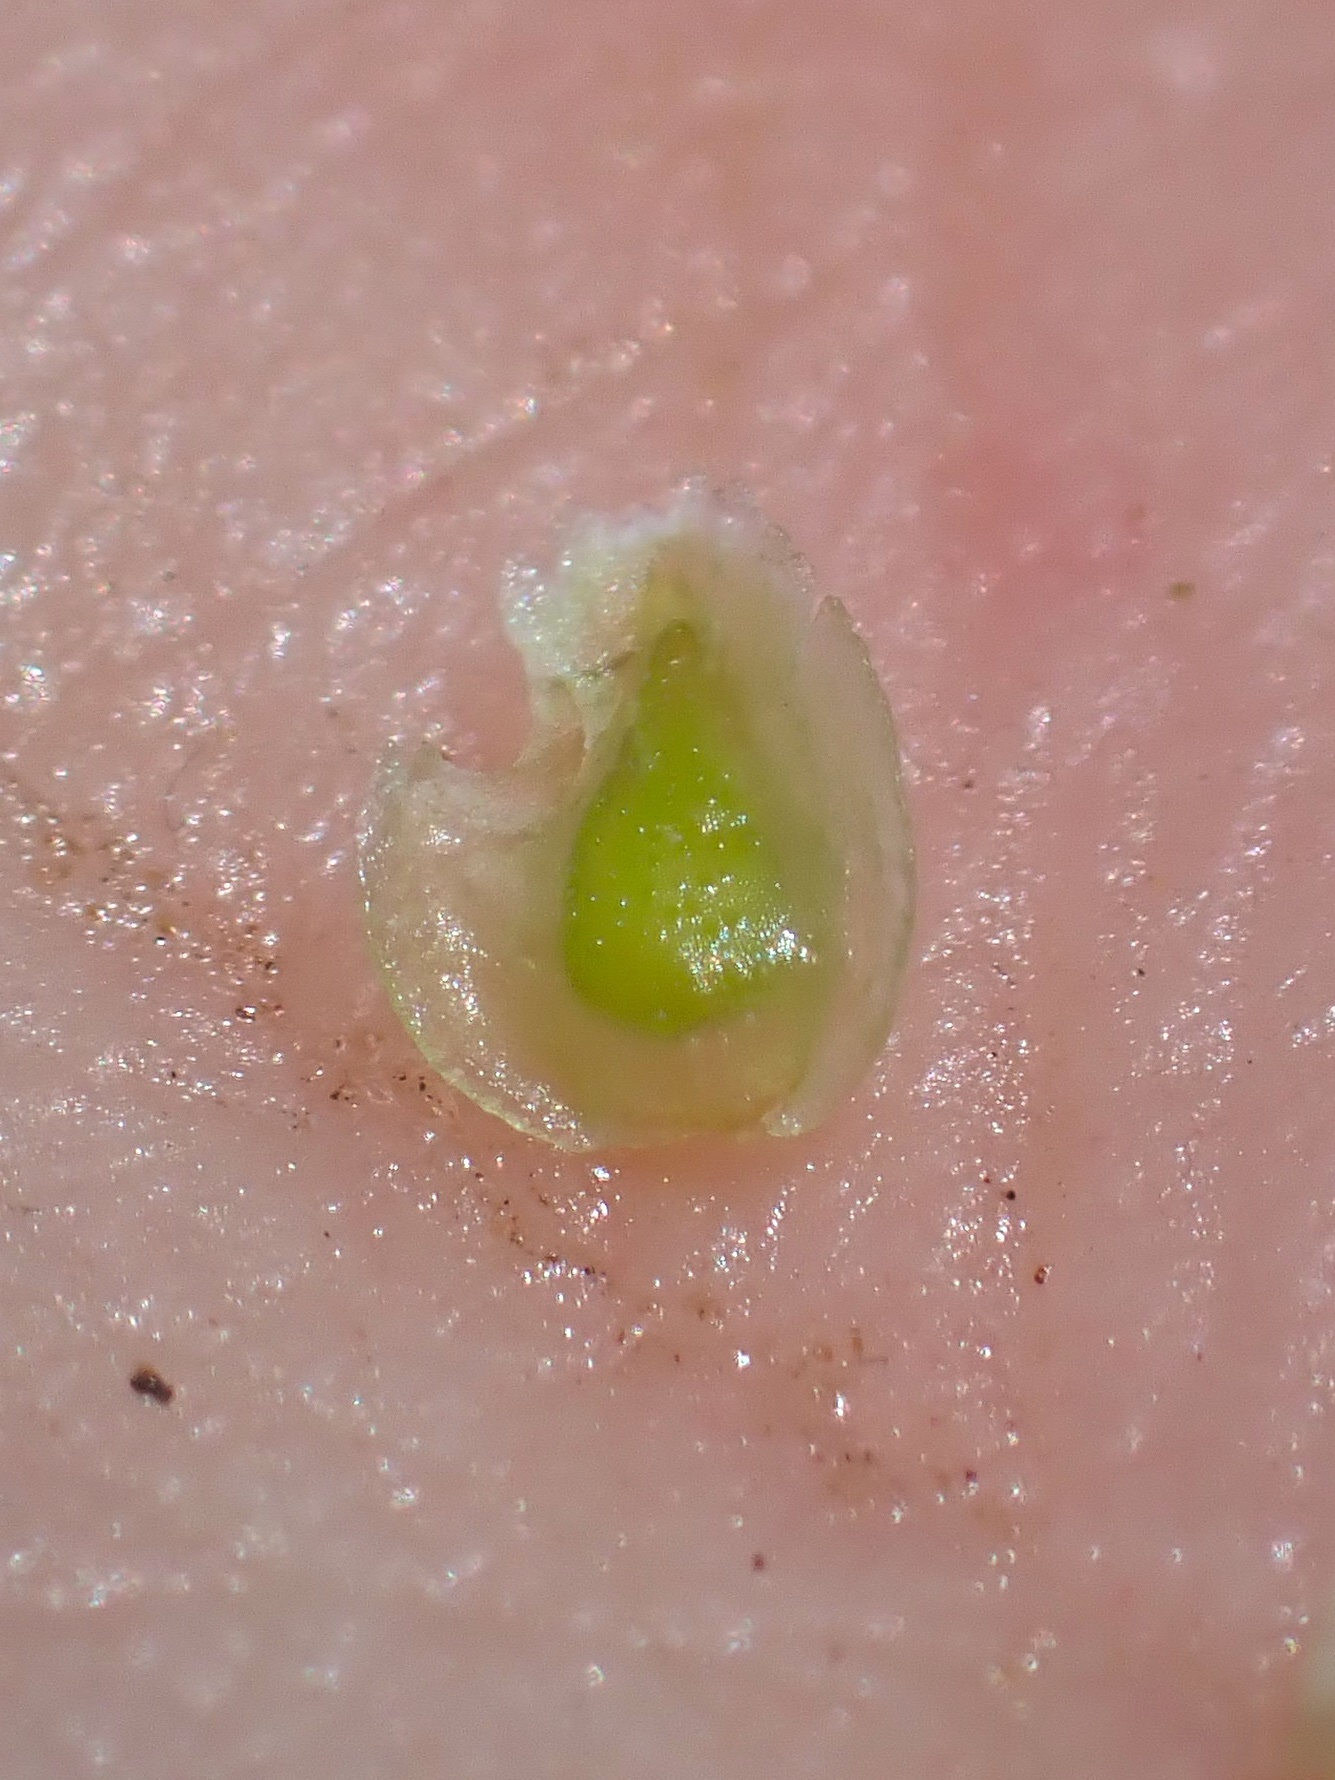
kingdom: Plantae
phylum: Tracheophyta
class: Magnoliopsida
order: Boraginales
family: Boraginaceae
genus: Cryptantha
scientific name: Cryptantha cycloptera
